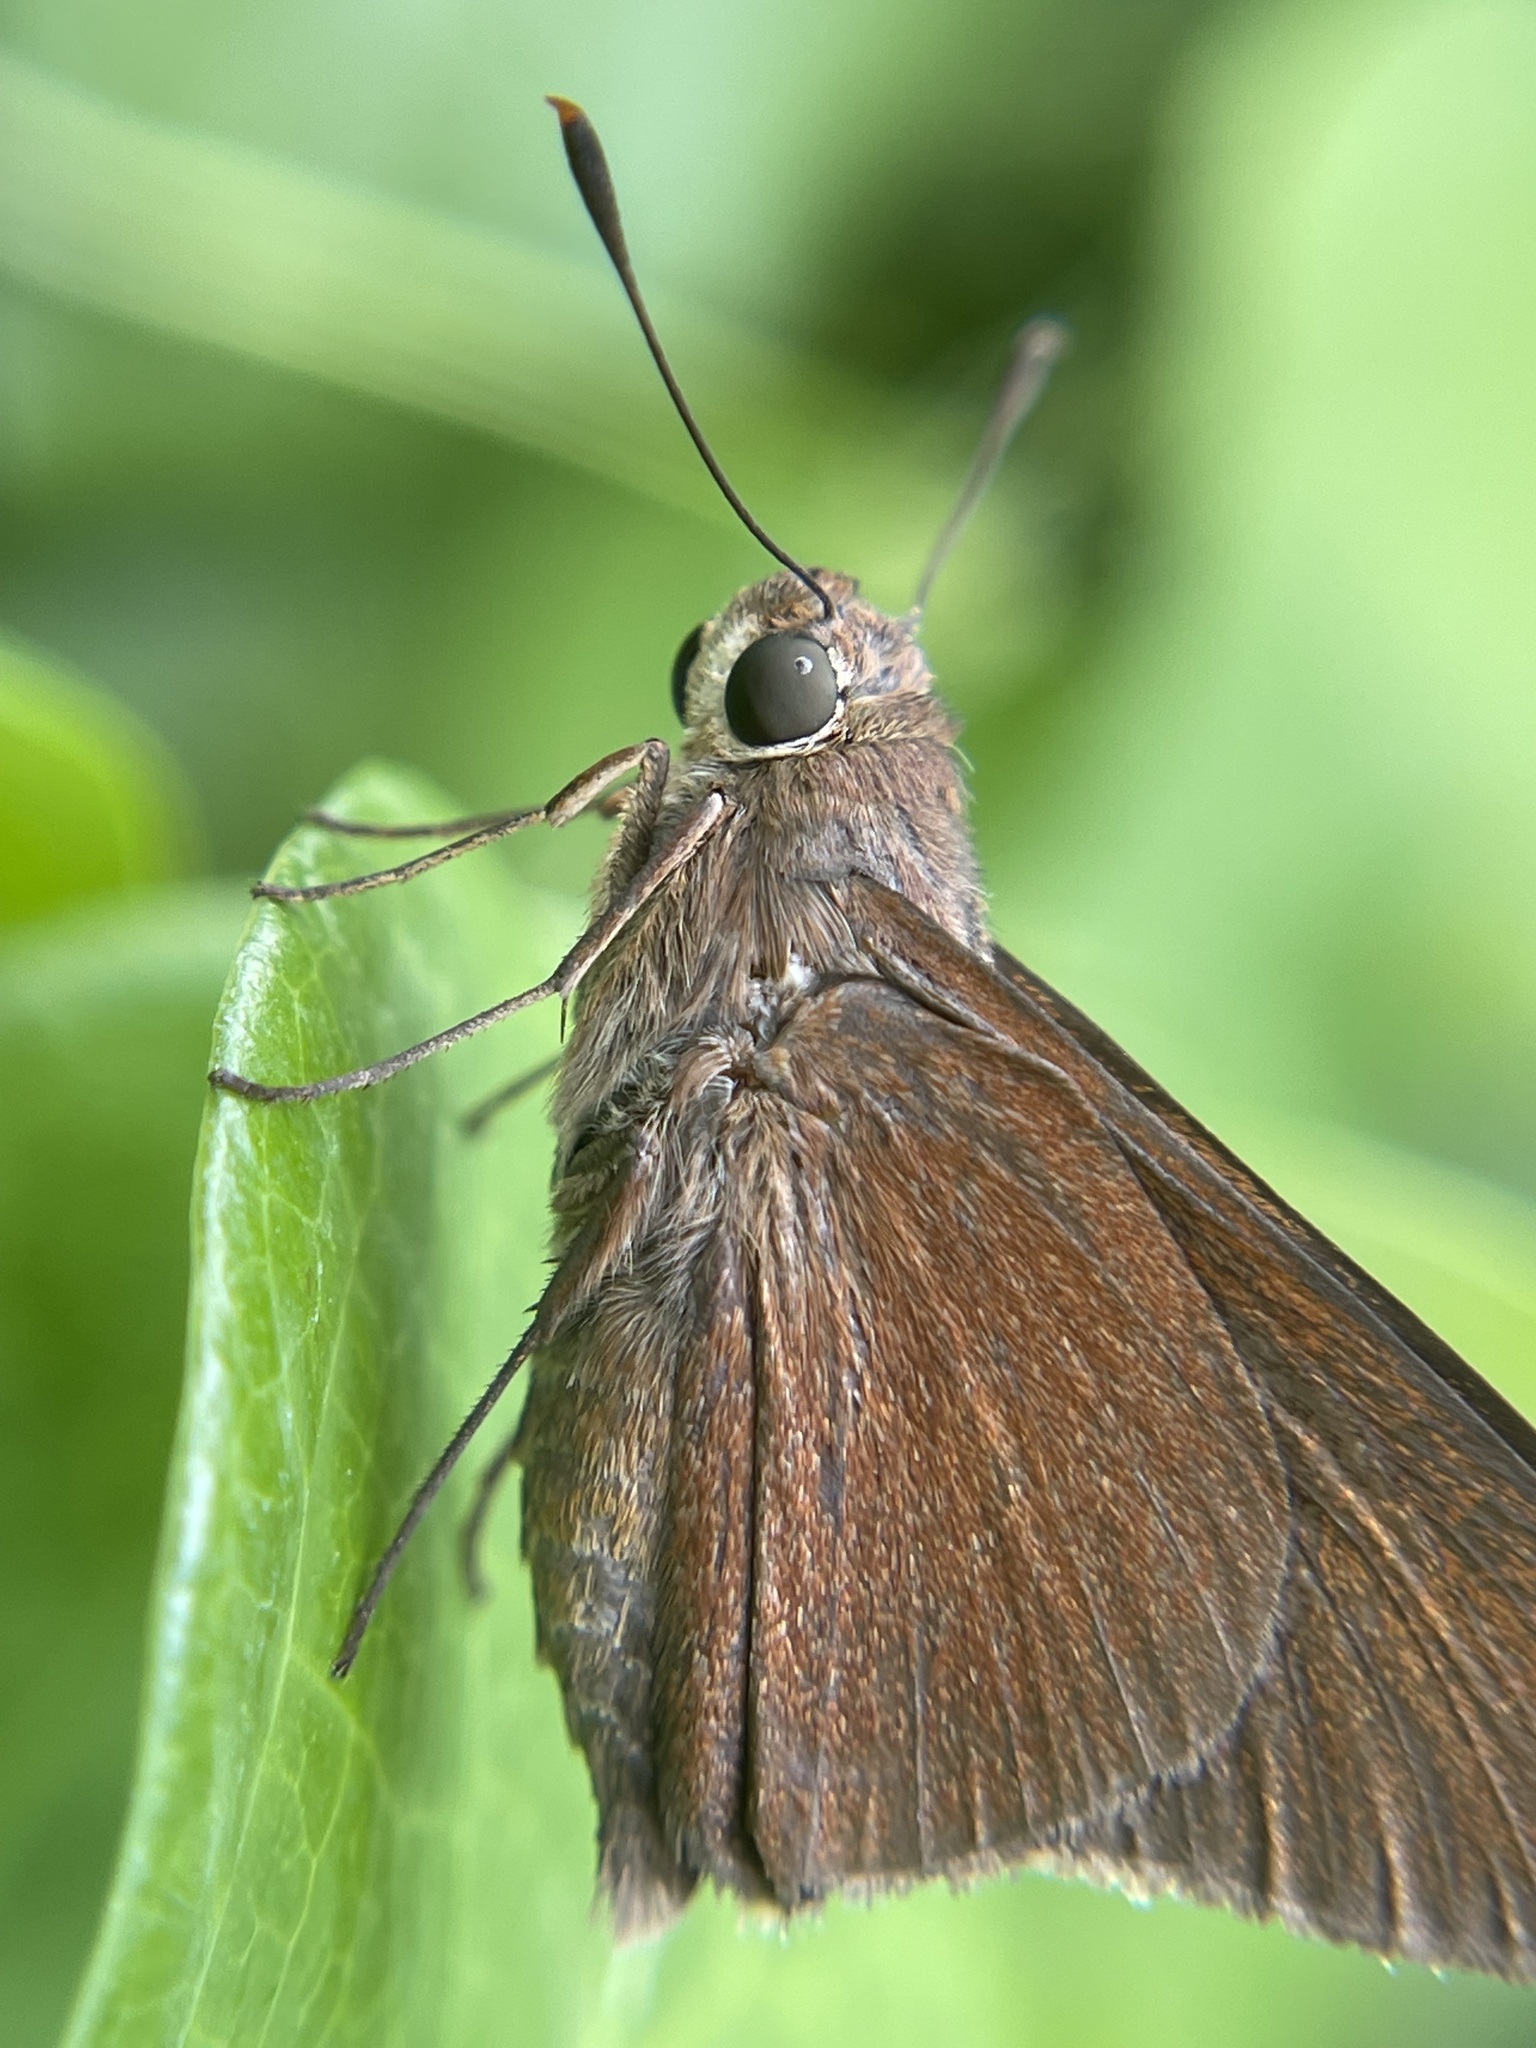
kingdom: Animalia
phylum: Arthropoda
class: Insecta
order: Lepidoptera
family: Hesperiidae
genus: Asbolis
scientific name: Asbolis capucinus
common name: Monk skipper
